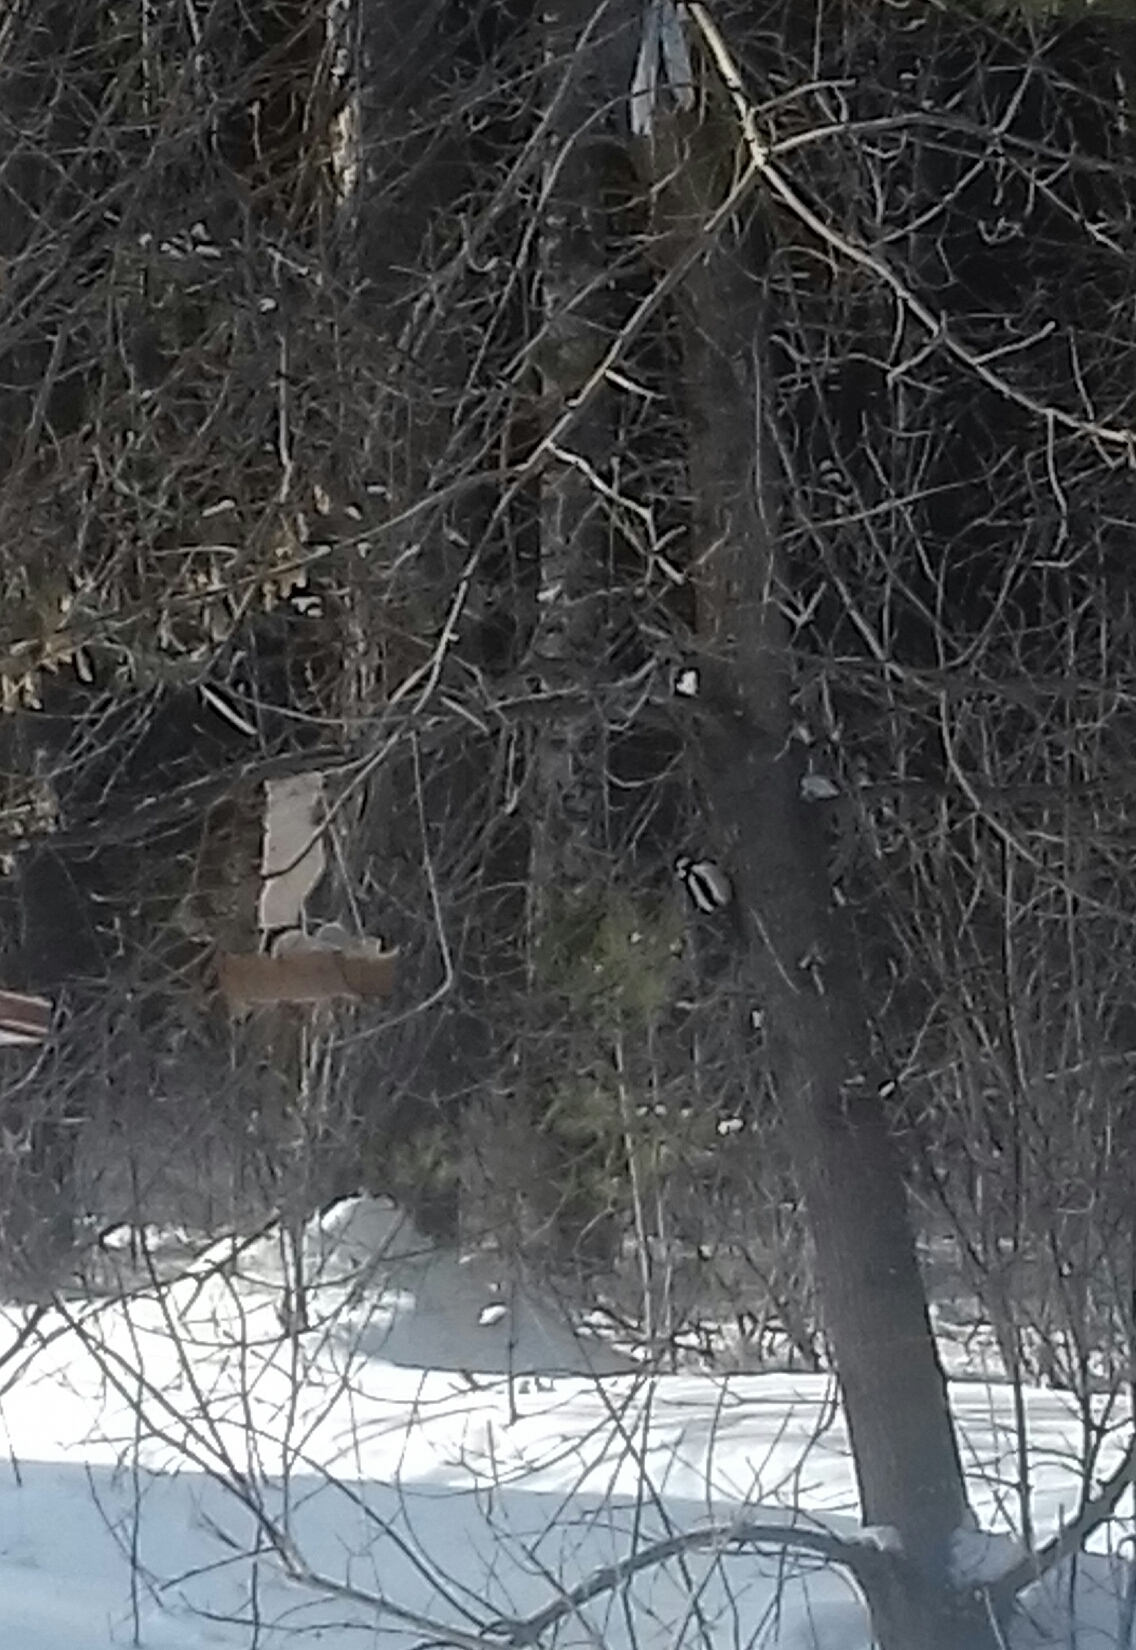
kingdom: Animalia
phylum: Chordata
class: Aves
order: Piciformes
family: Picidae
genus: Dendrocopos
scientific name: Dendrocopos major
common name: Great spotted woodpecker
